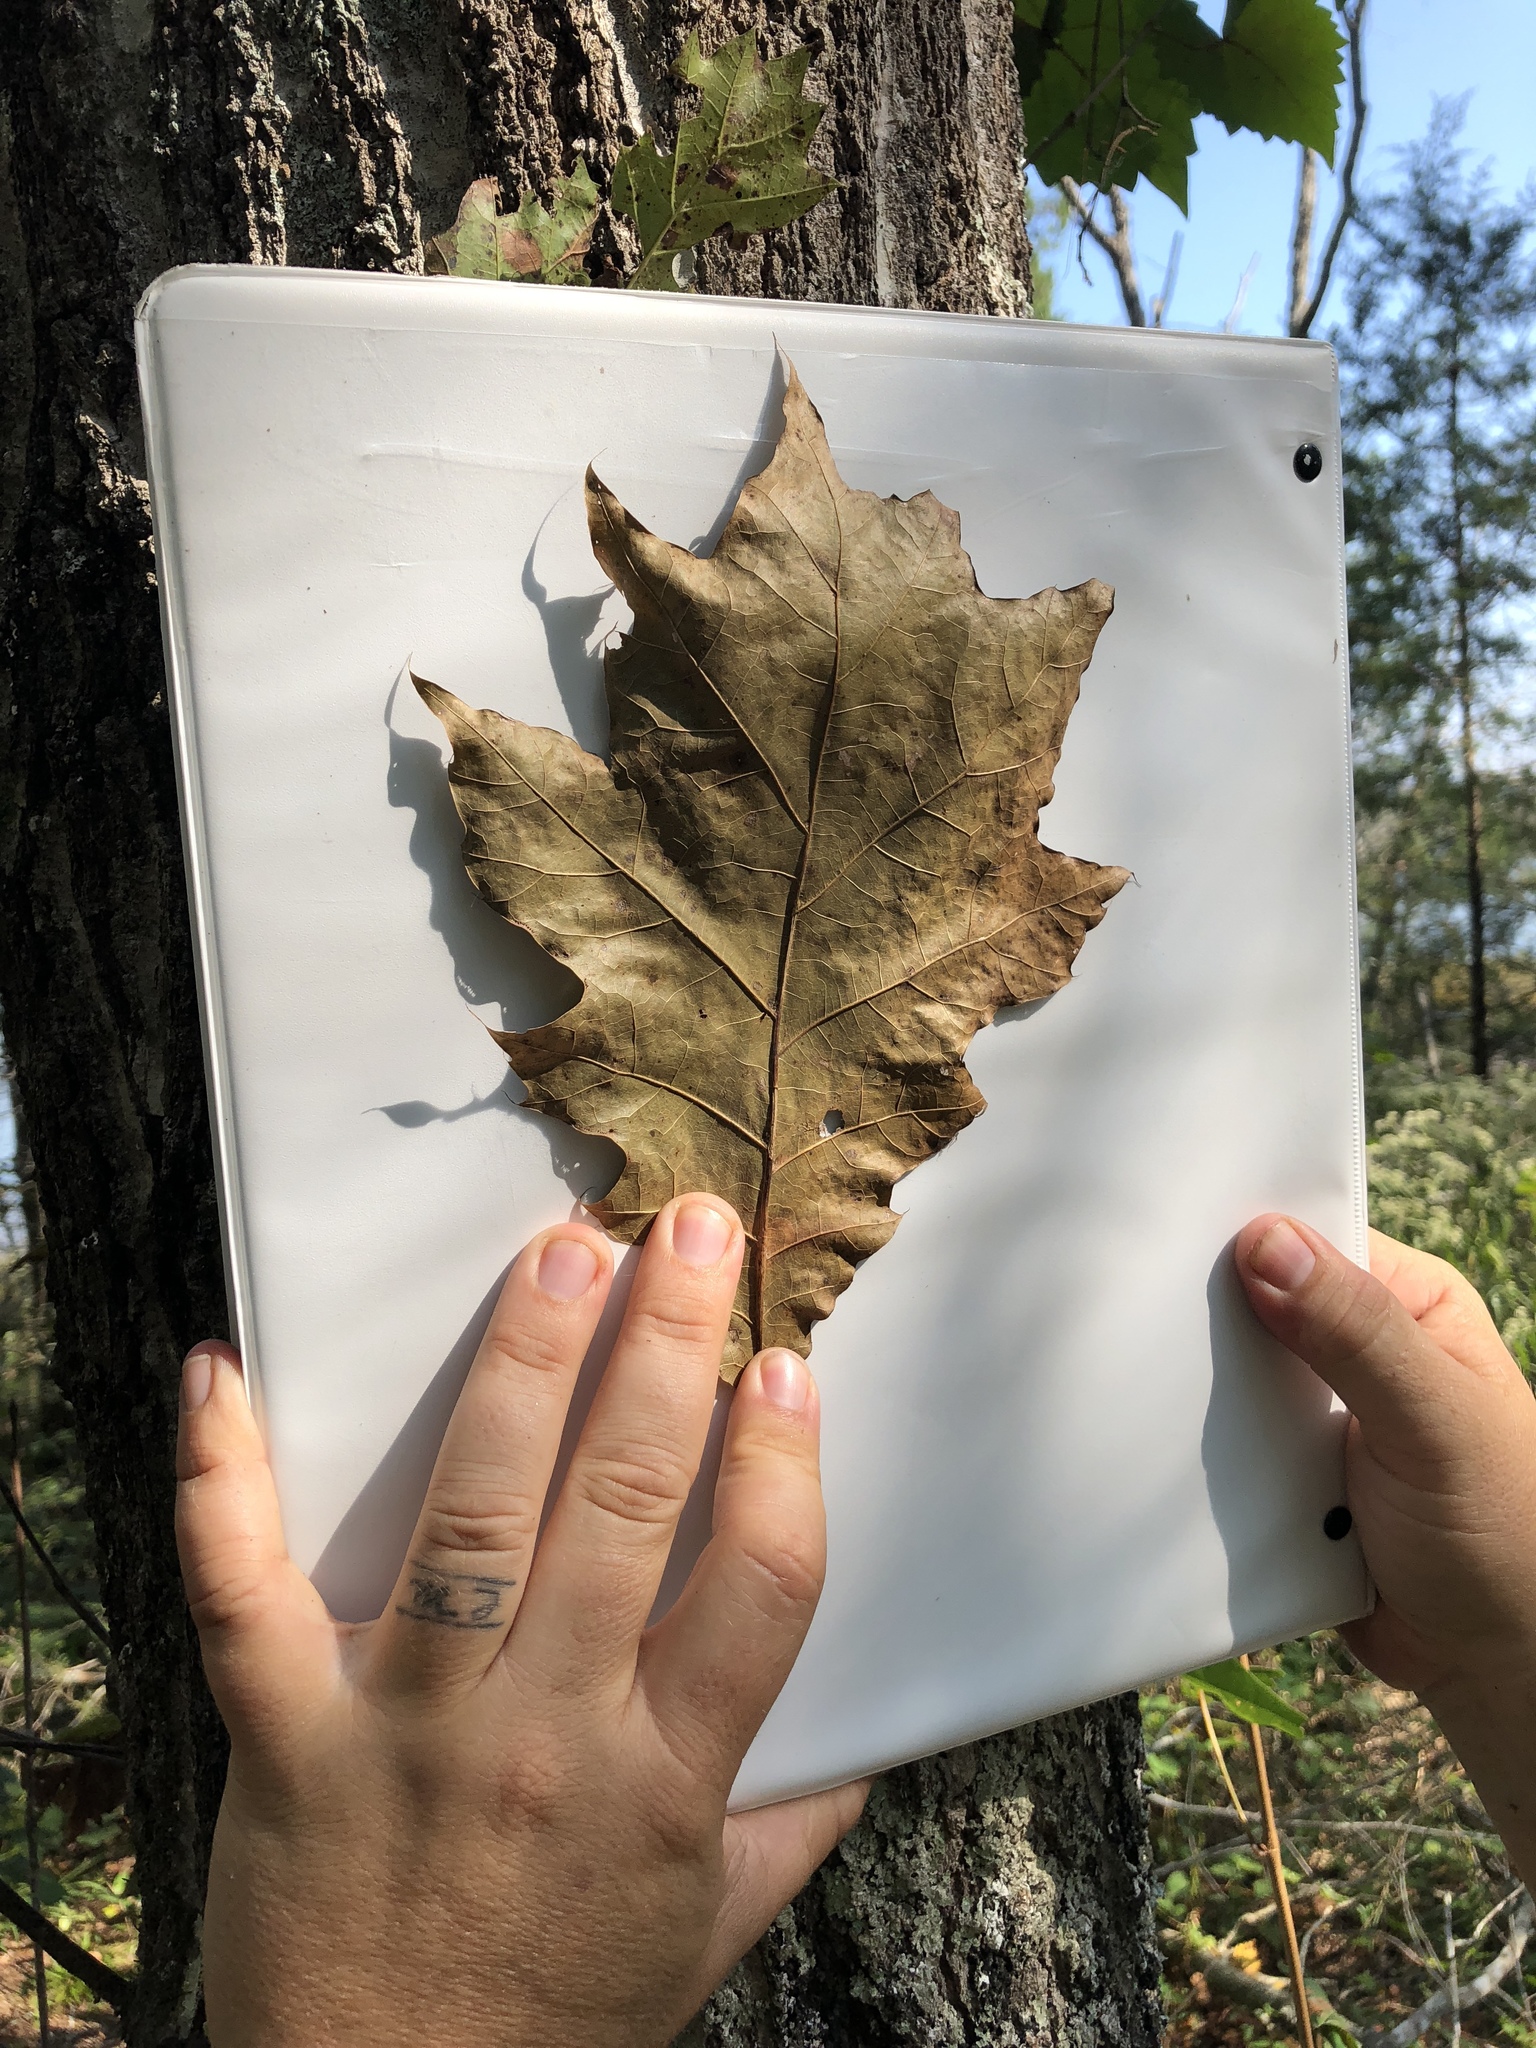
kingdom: Plantae
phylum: Tracheophyta
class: Magnoliopsida
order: Fagales
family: Fagaceae
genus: Quercus
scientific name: Quercus rubra
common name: Red oak
